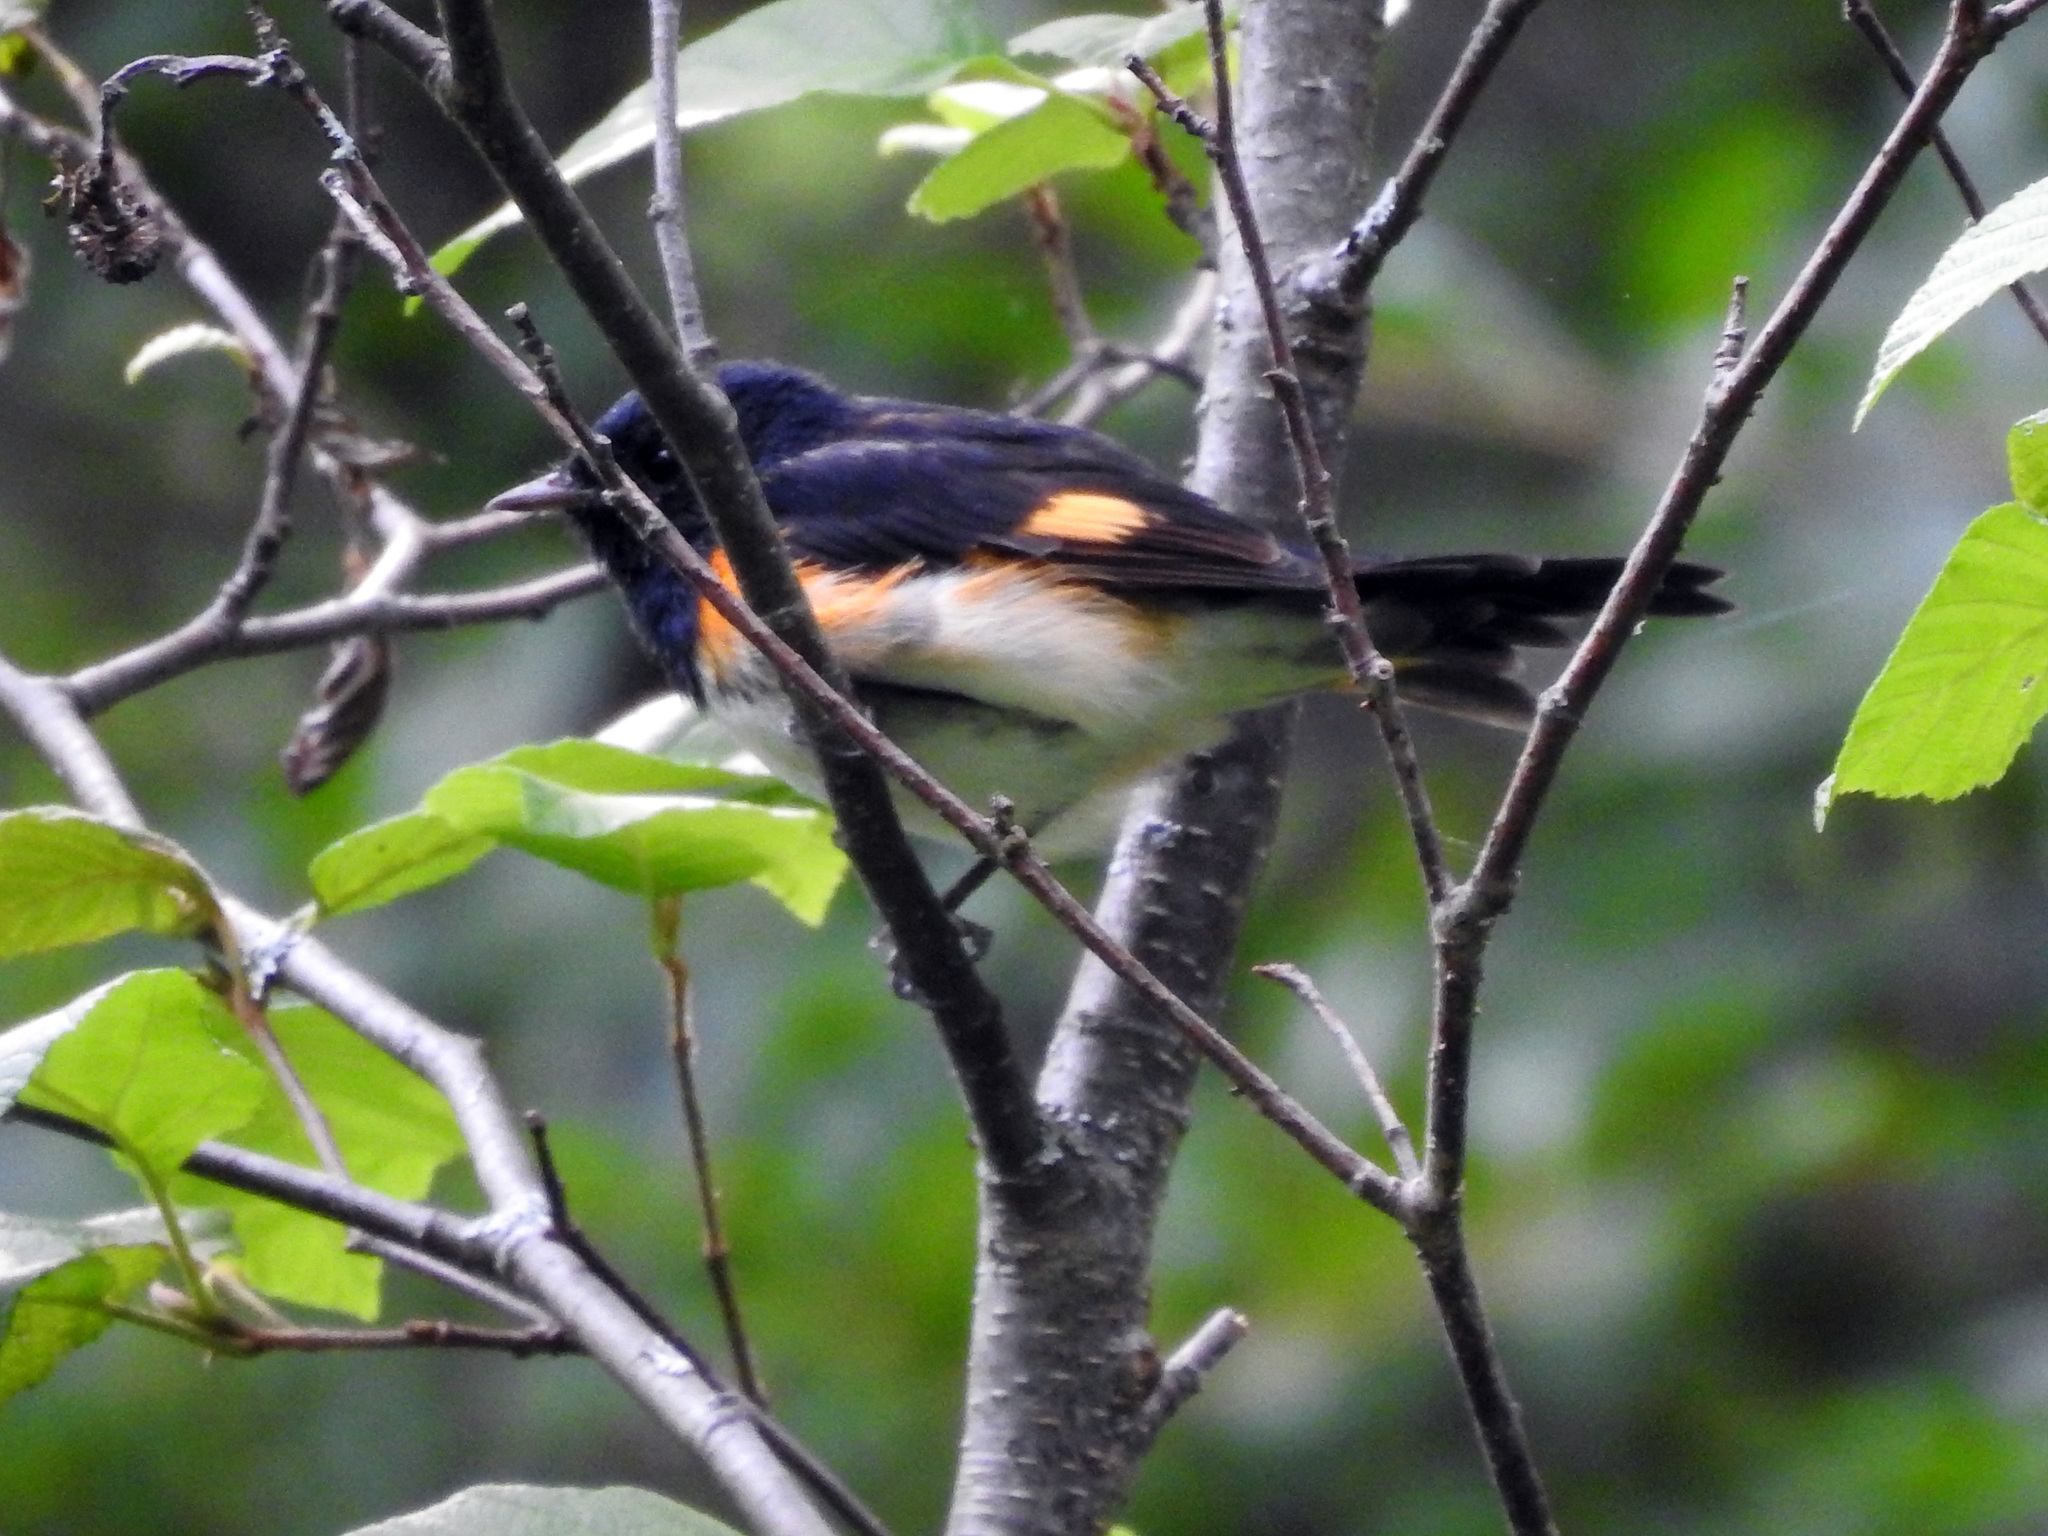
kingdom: Animalia
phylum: Chordata
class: Aves
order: Passeriformes
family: Parulidae
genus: Setophaga
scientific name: Setophaga ruticilla
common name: American redstart
